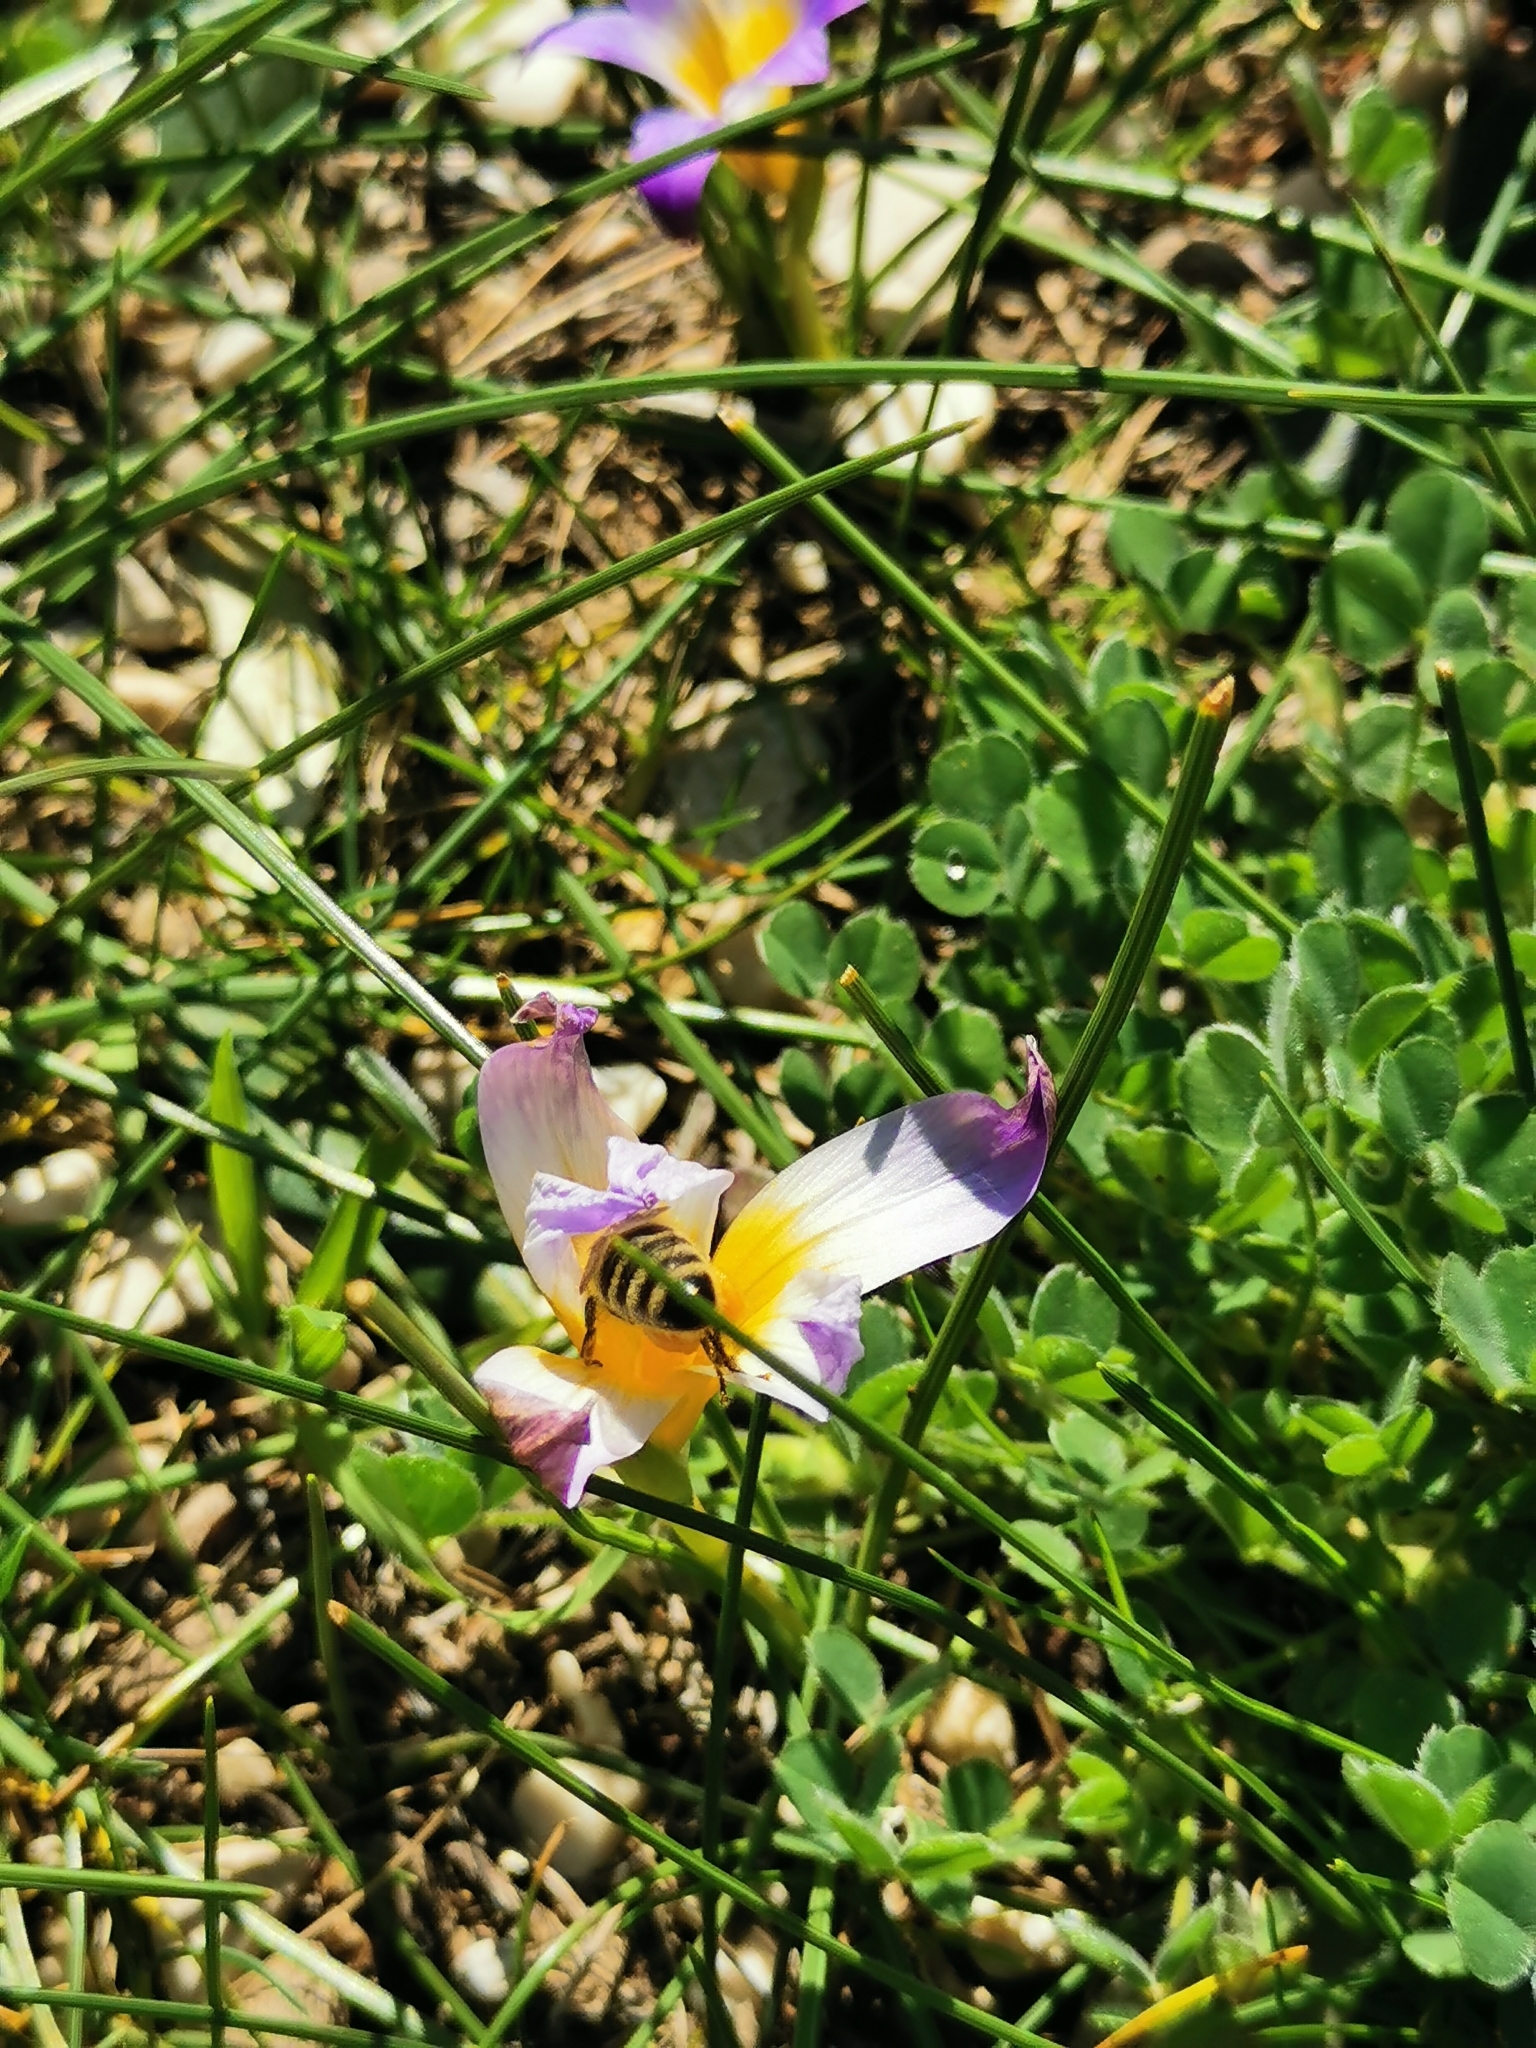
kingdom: Animalia
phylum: Arthropoda
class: Insecta
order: Hymenoptera
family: Apidae
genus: Apis
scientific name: Apis mellifera
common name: Honey bee
